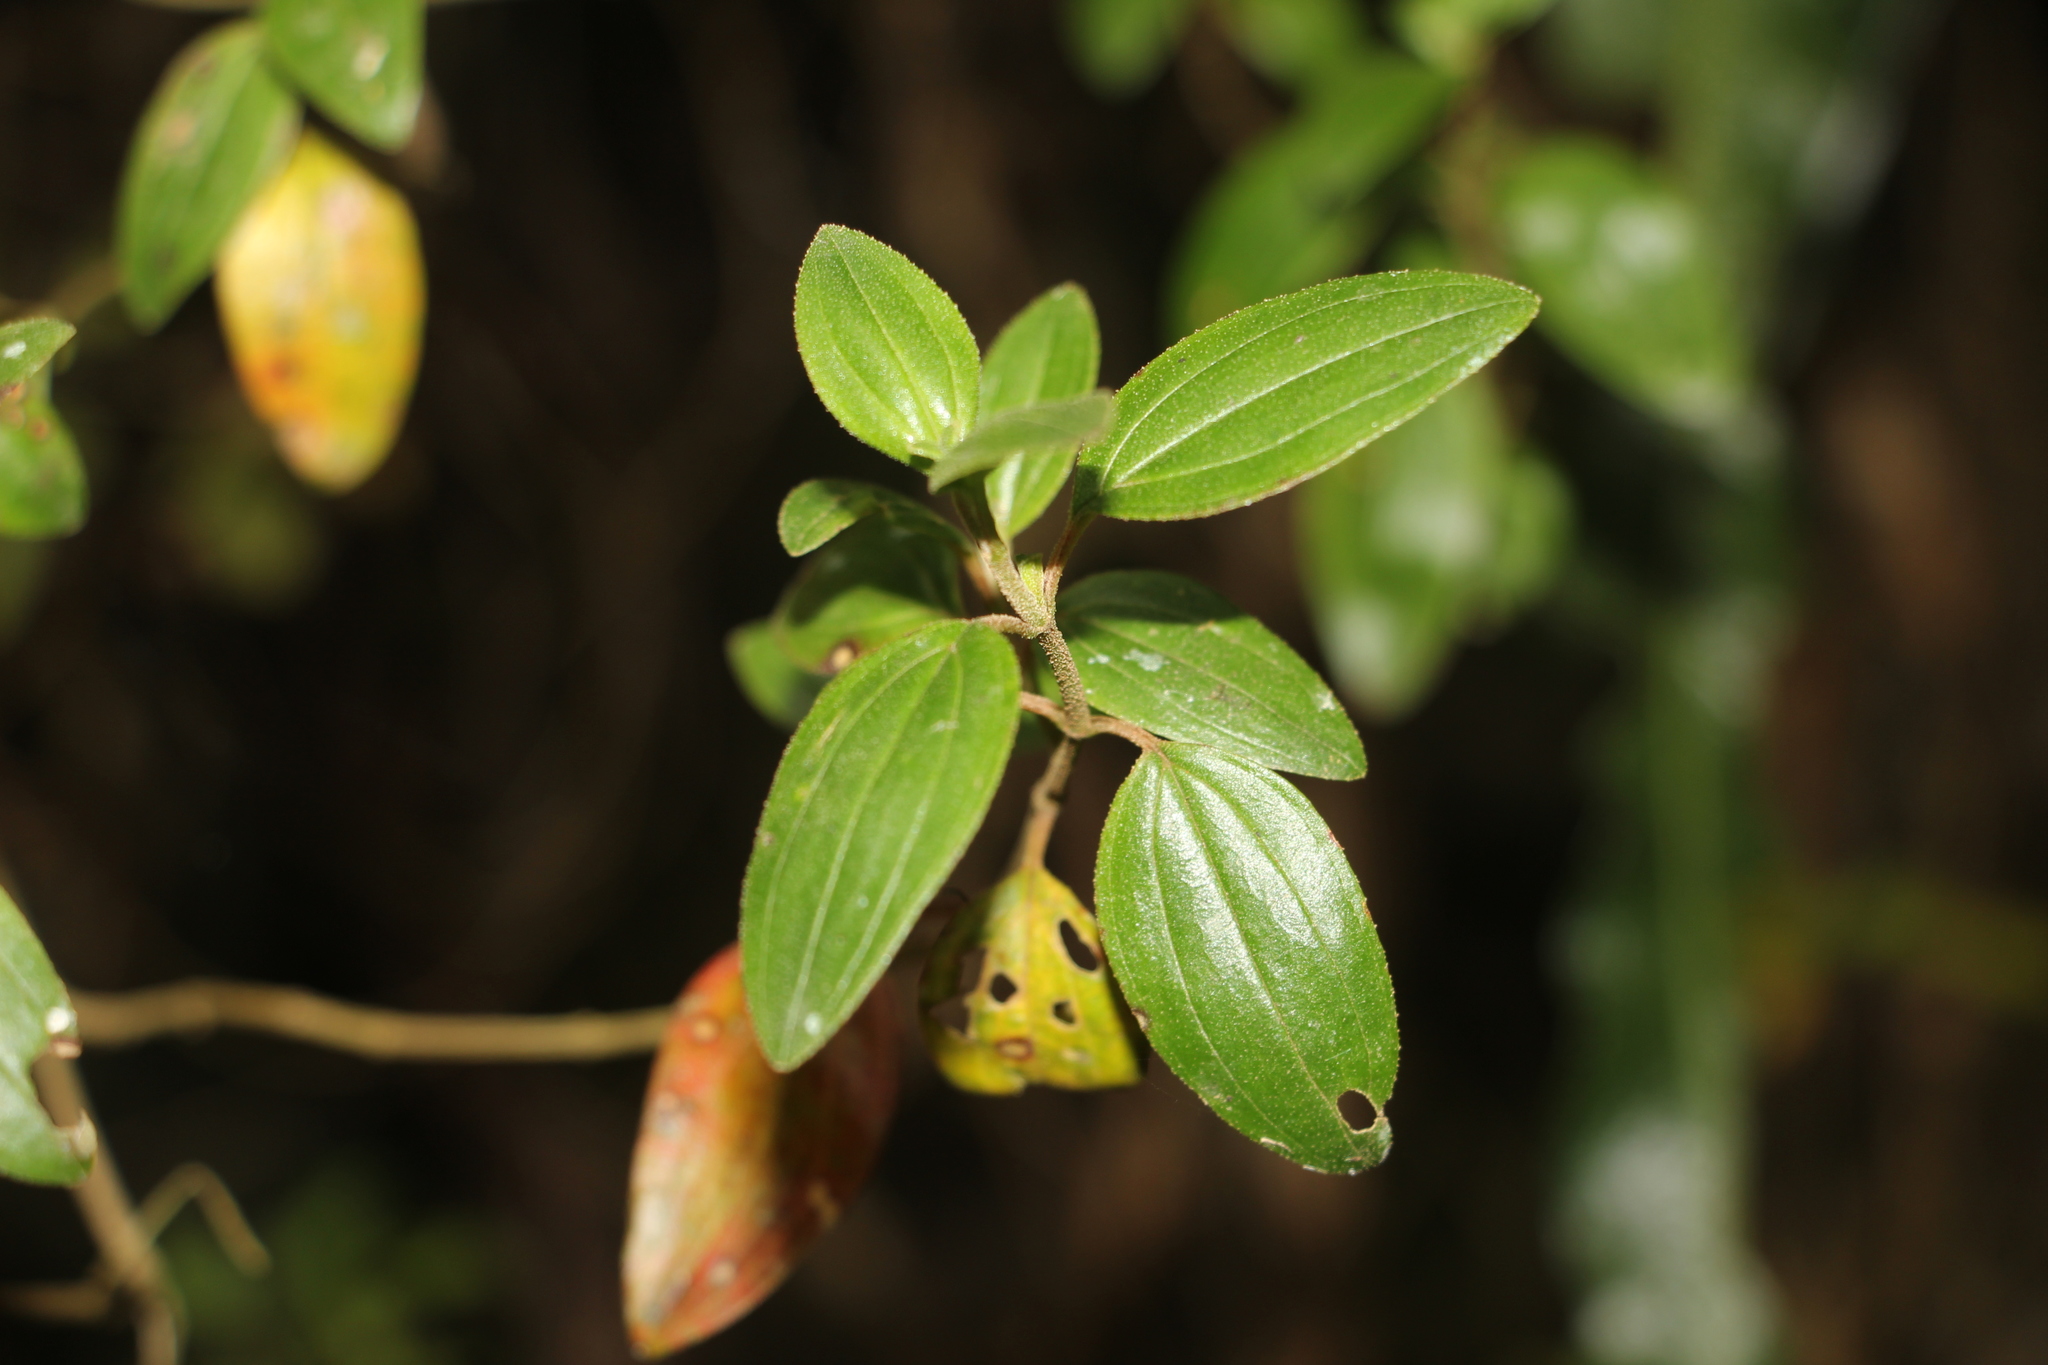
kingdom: Plantae
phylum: Tracheophyta
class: Magnoliopsida
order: Myrtales
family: Melastomataceae
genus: Monochaetum
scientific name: Monochaetum myrtoideum
